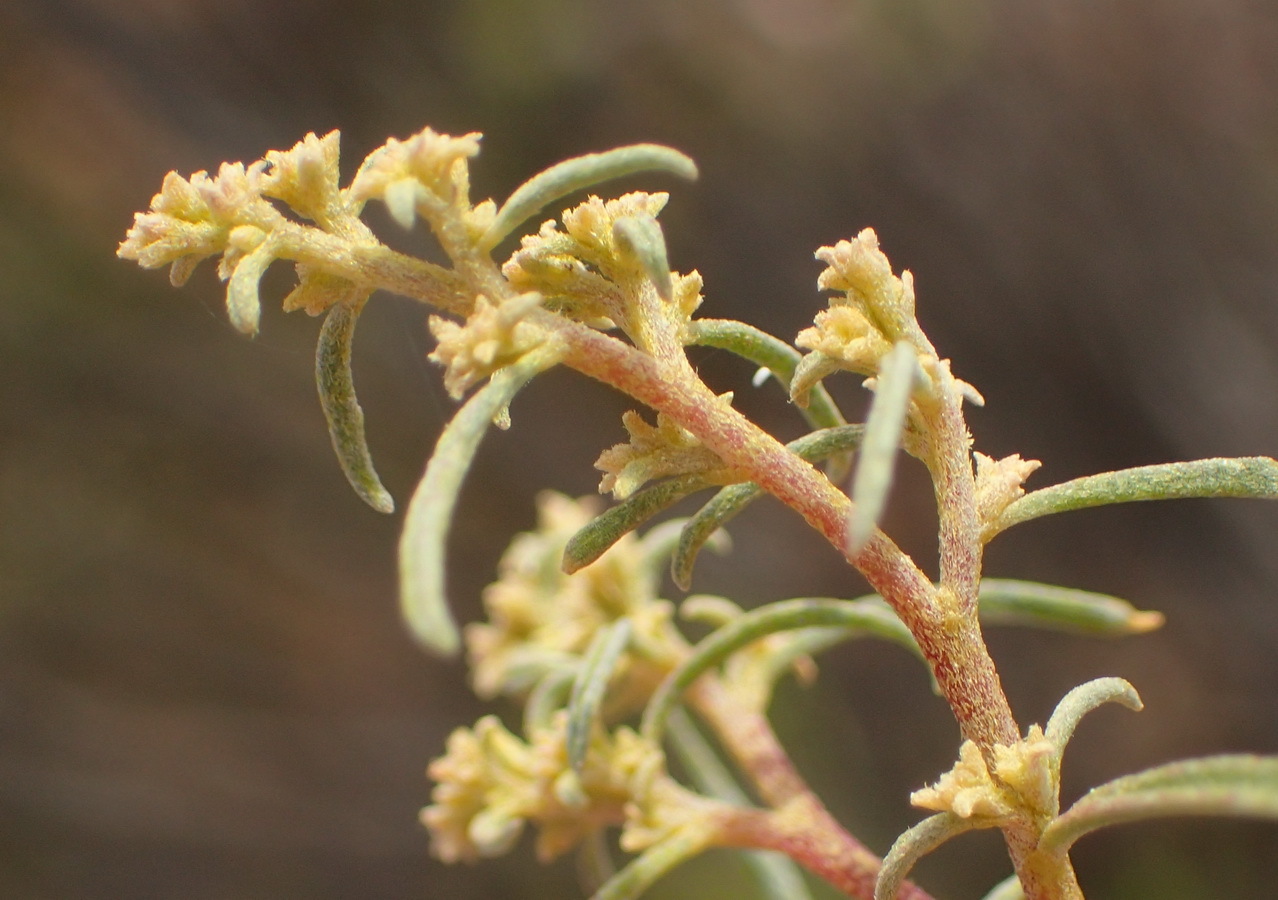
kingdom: Plantae
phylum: Tracheophyta
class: Magnoliopsida
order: Caryophyllales
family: Aizoaceae
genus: Aizoon
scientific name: Aizoon africanum
